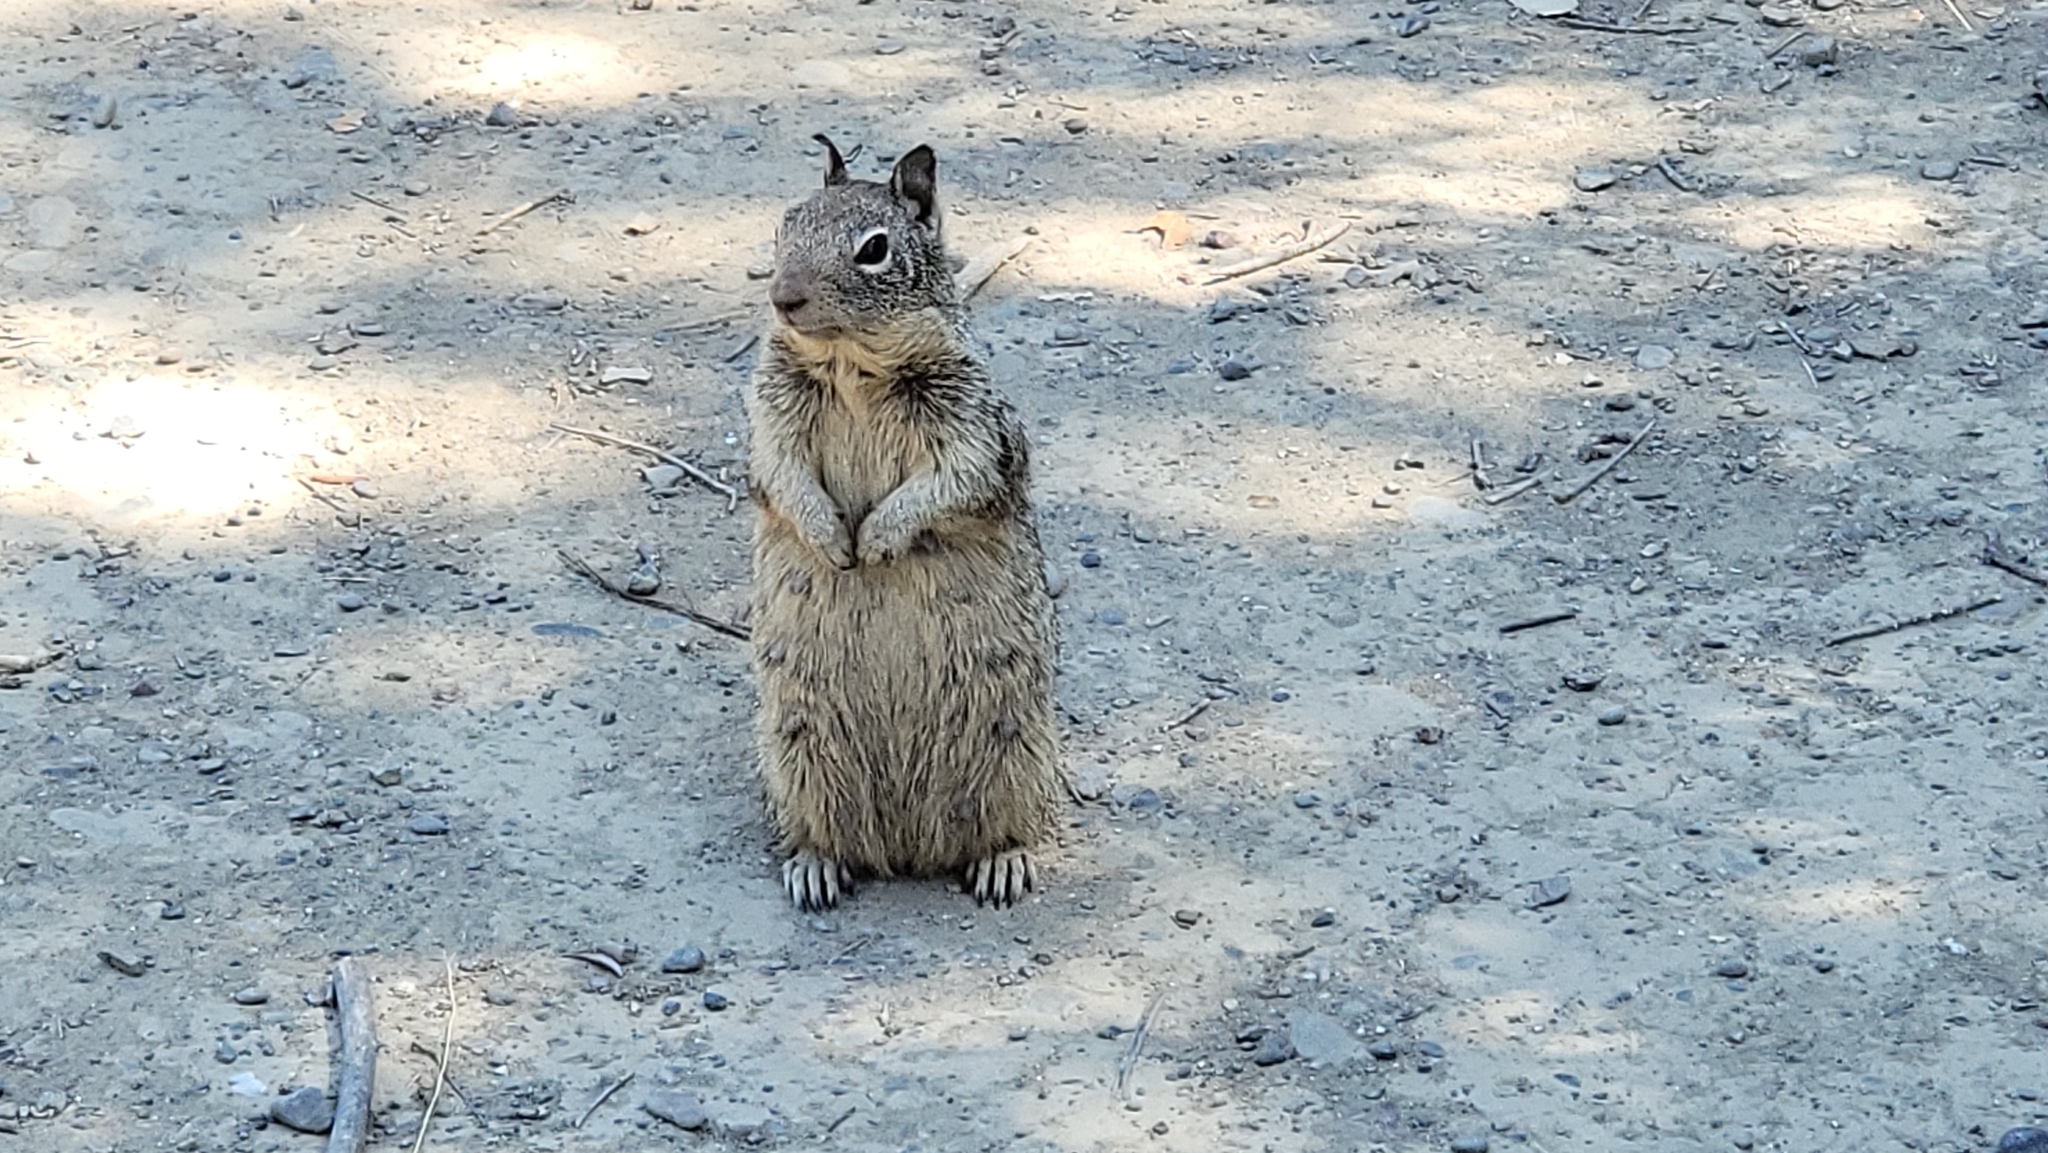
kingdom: Animalia
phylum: Chordata
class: Mammalia
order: Rodentia
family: Sciuridae
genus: Otospermophilus
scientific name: Otospermophilus beecheyi
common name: California ground squirrel
